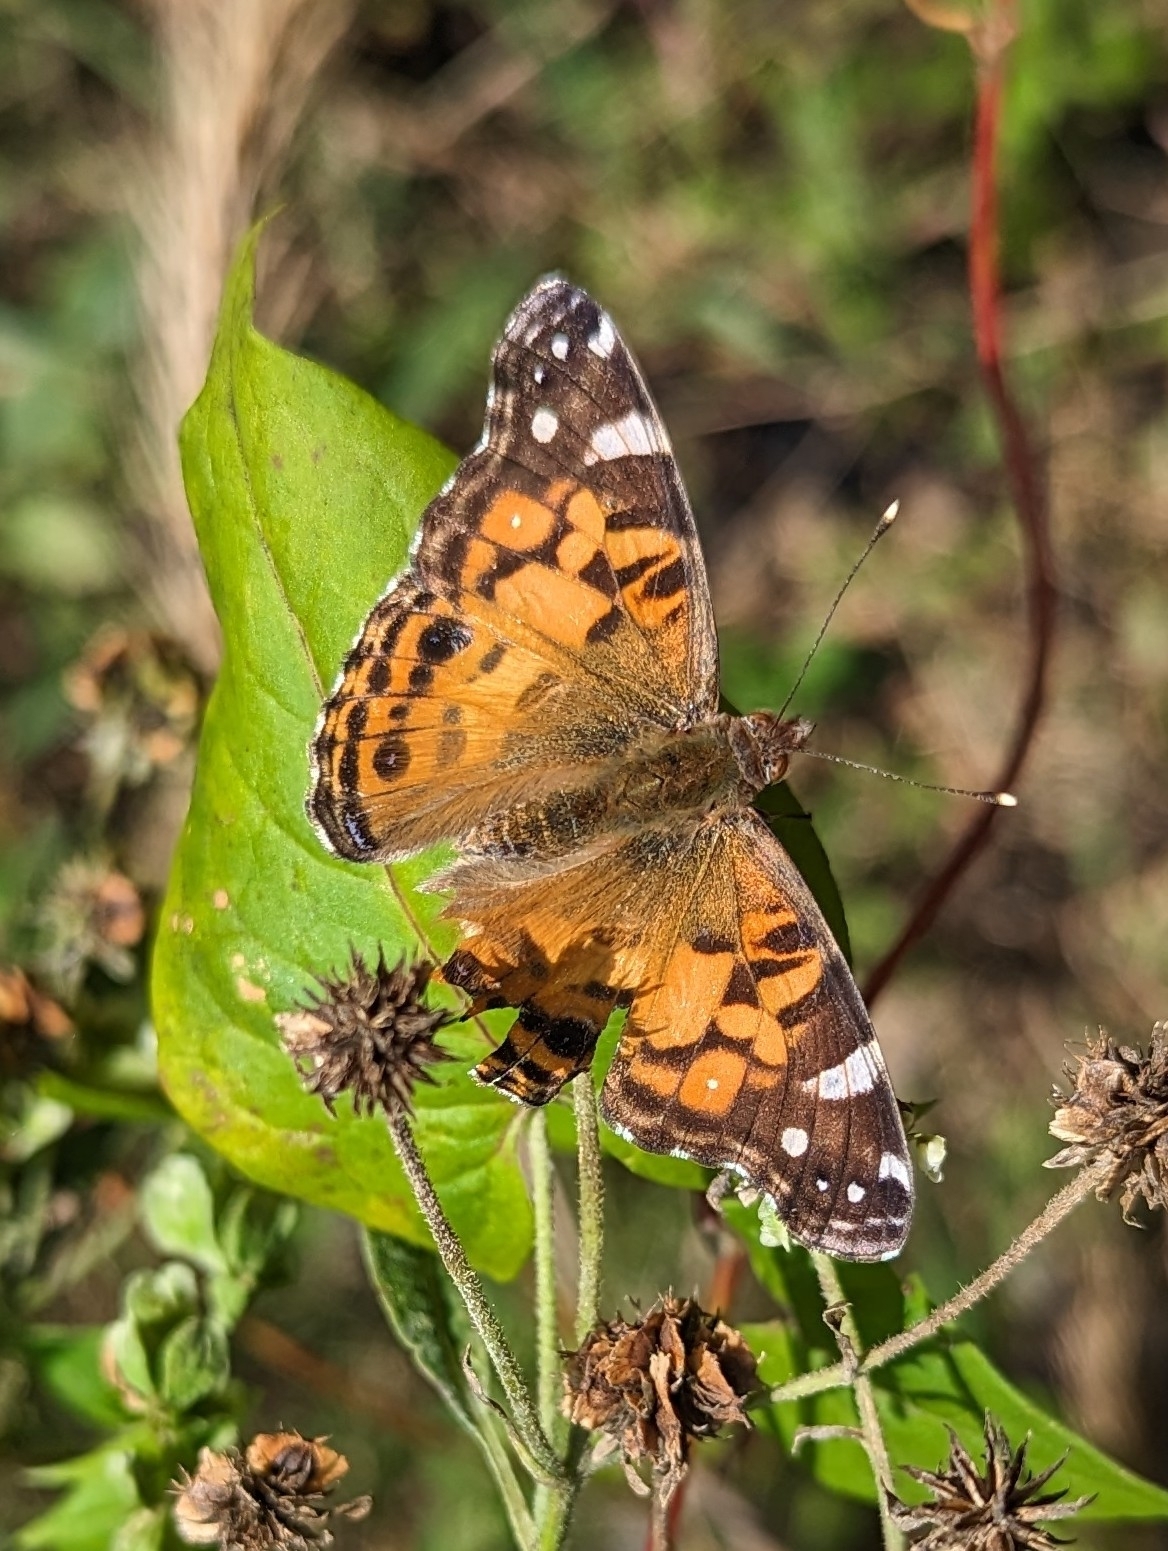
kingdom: Animalia
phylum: Arthropoda
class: Insecta
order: Lepidoptera
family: Nymphalidae
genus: Vanessa
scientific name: Vanessa virginiensis
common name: American lady
